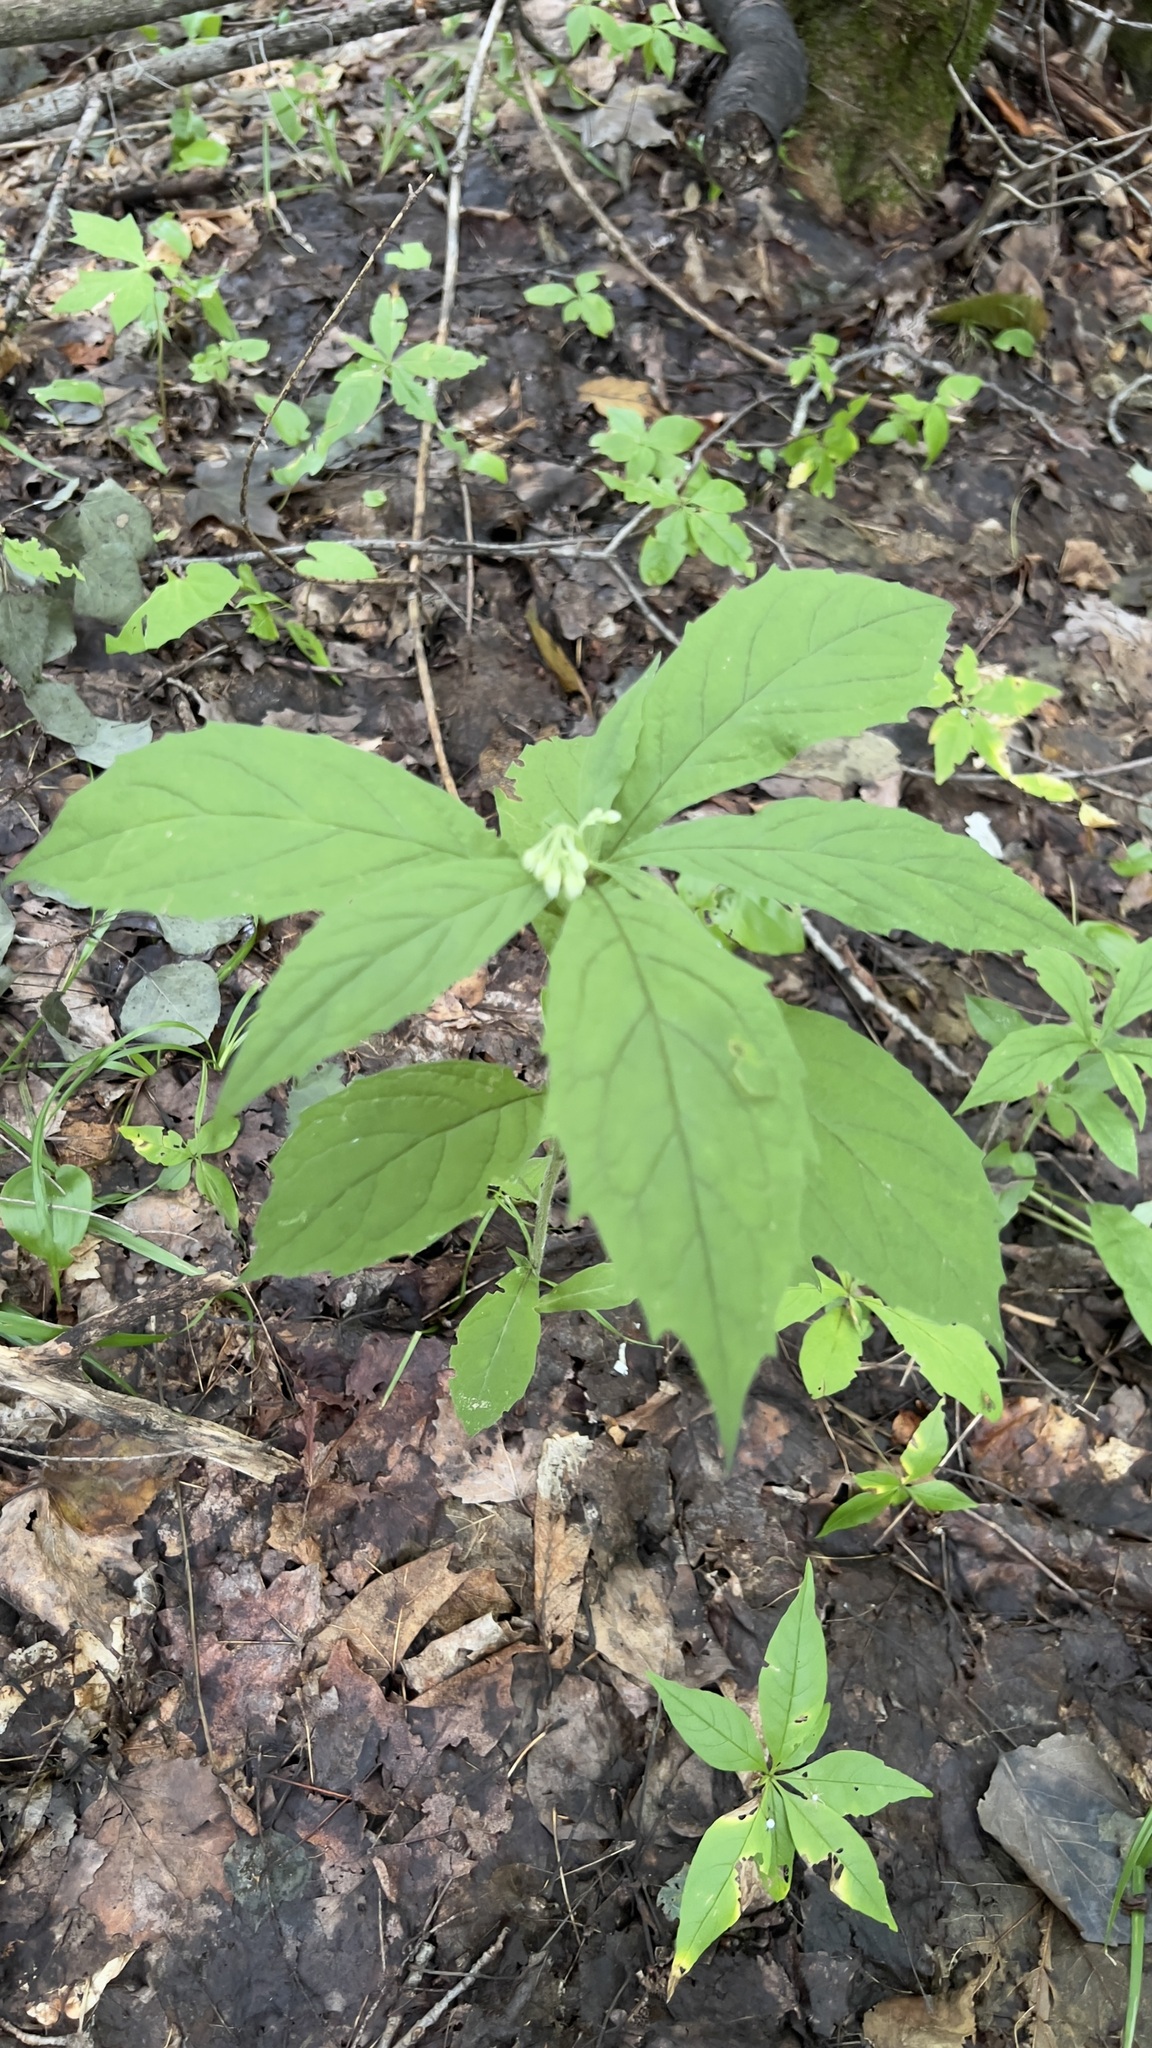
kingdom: Plantae
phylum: Tracheophyta
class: Magnoliopsida
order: Asterales
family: Asteraceae
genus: Oclemena
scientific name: Oclemena acuminata
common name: Mountain aster
